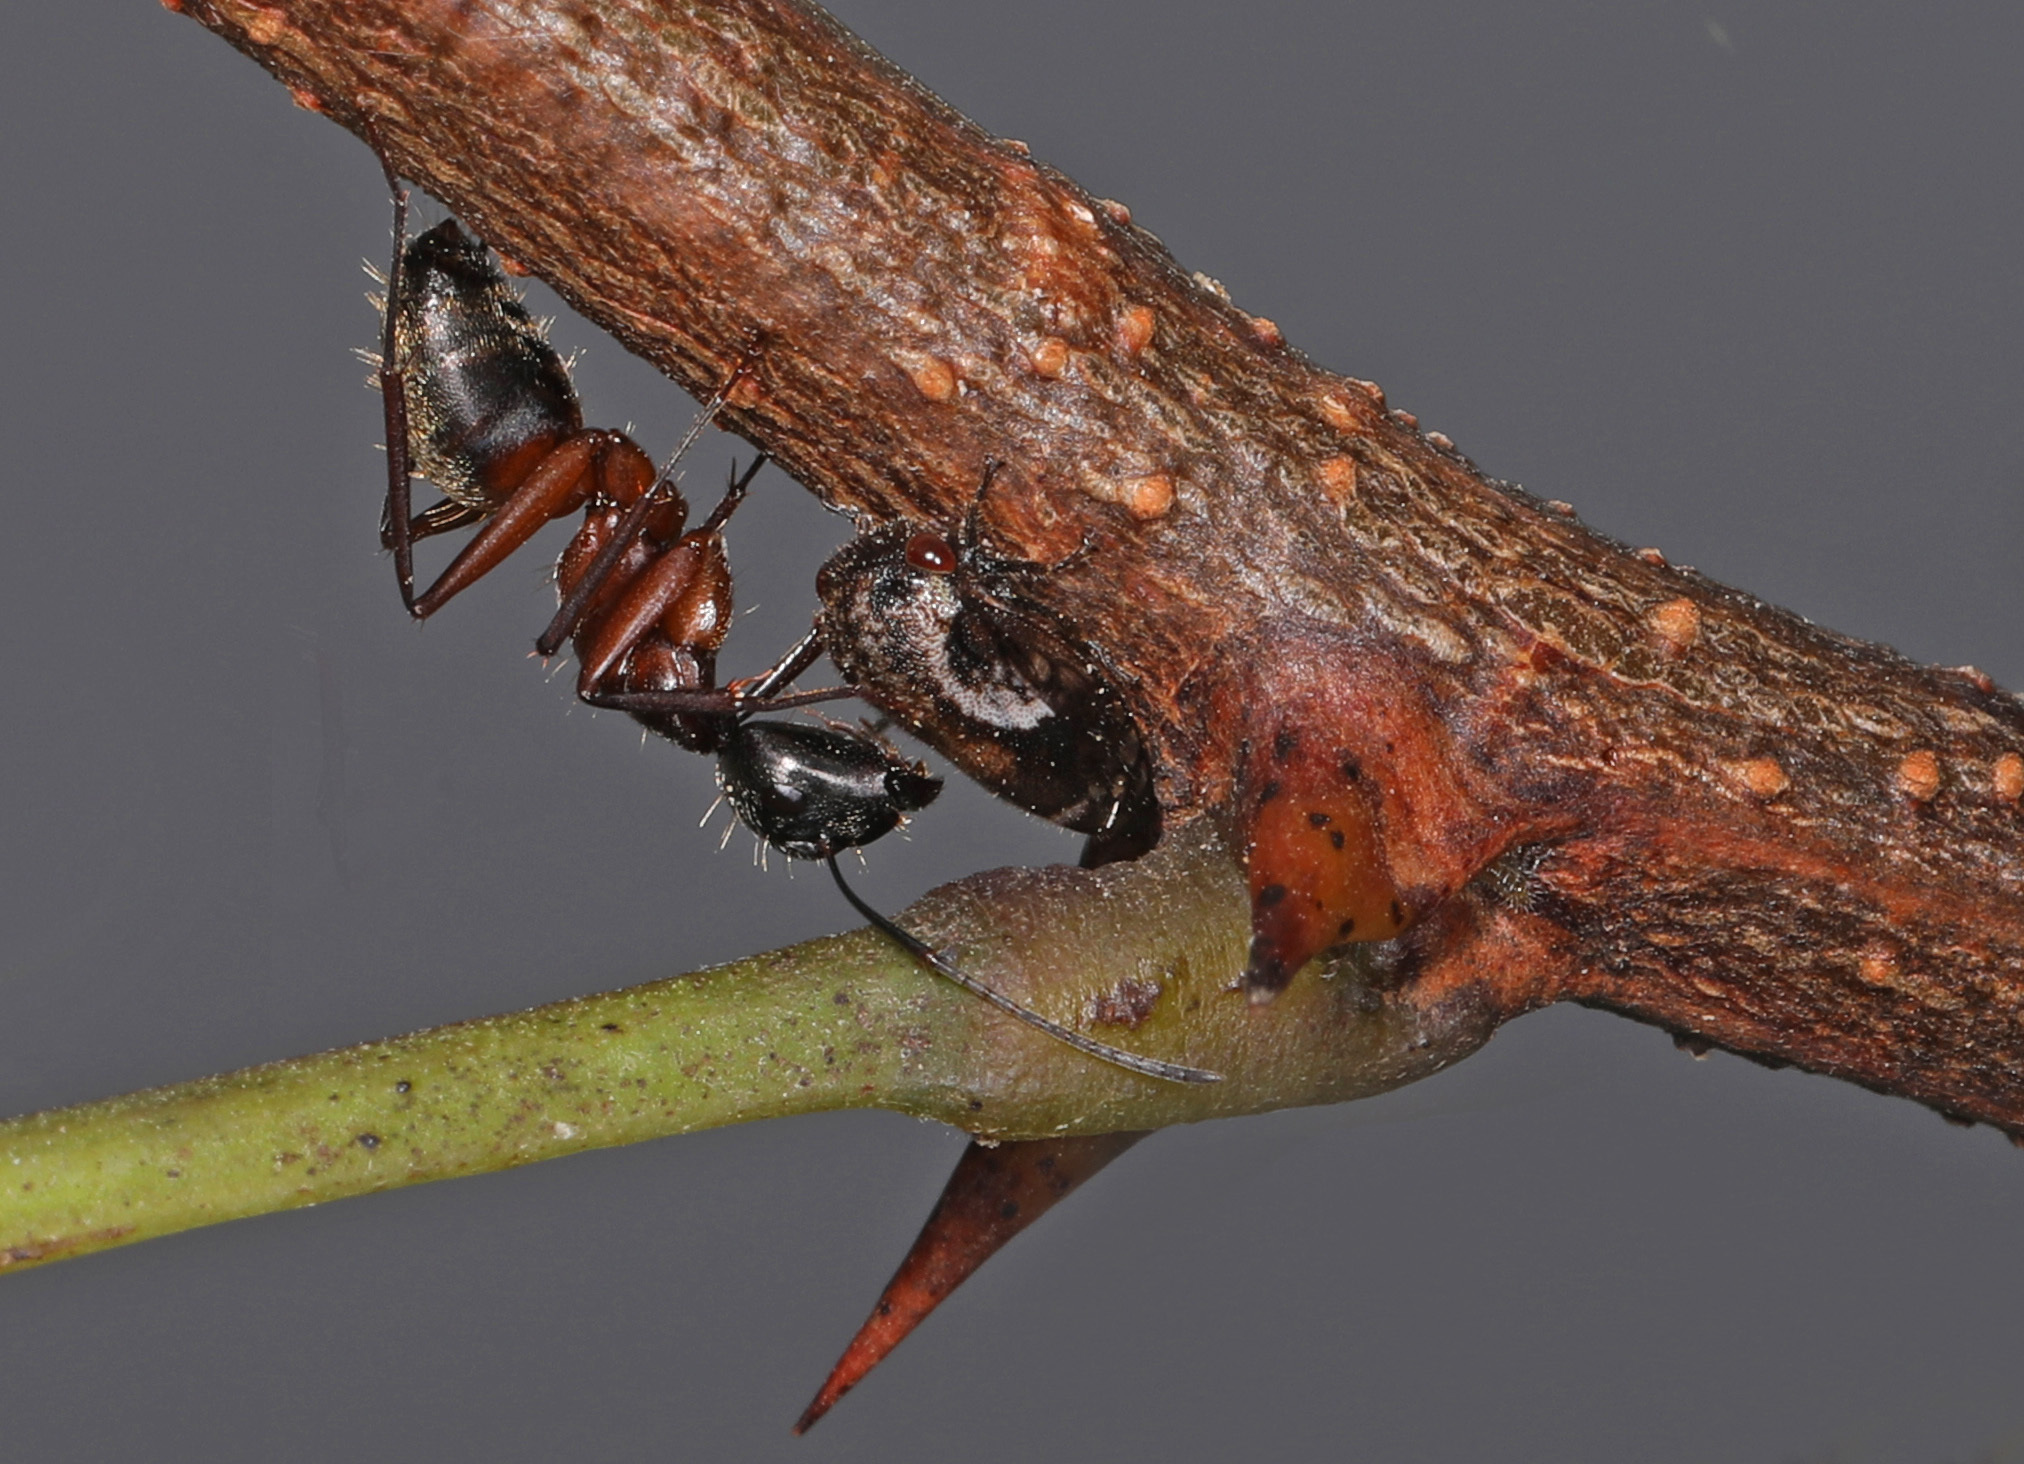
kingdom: Animalia
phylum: Arthropoda
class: Insecta
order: Hymenoptera
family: Formicidae
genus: Camponotus
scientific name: Camponotus chromaiodes
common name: Red carpenter ant
